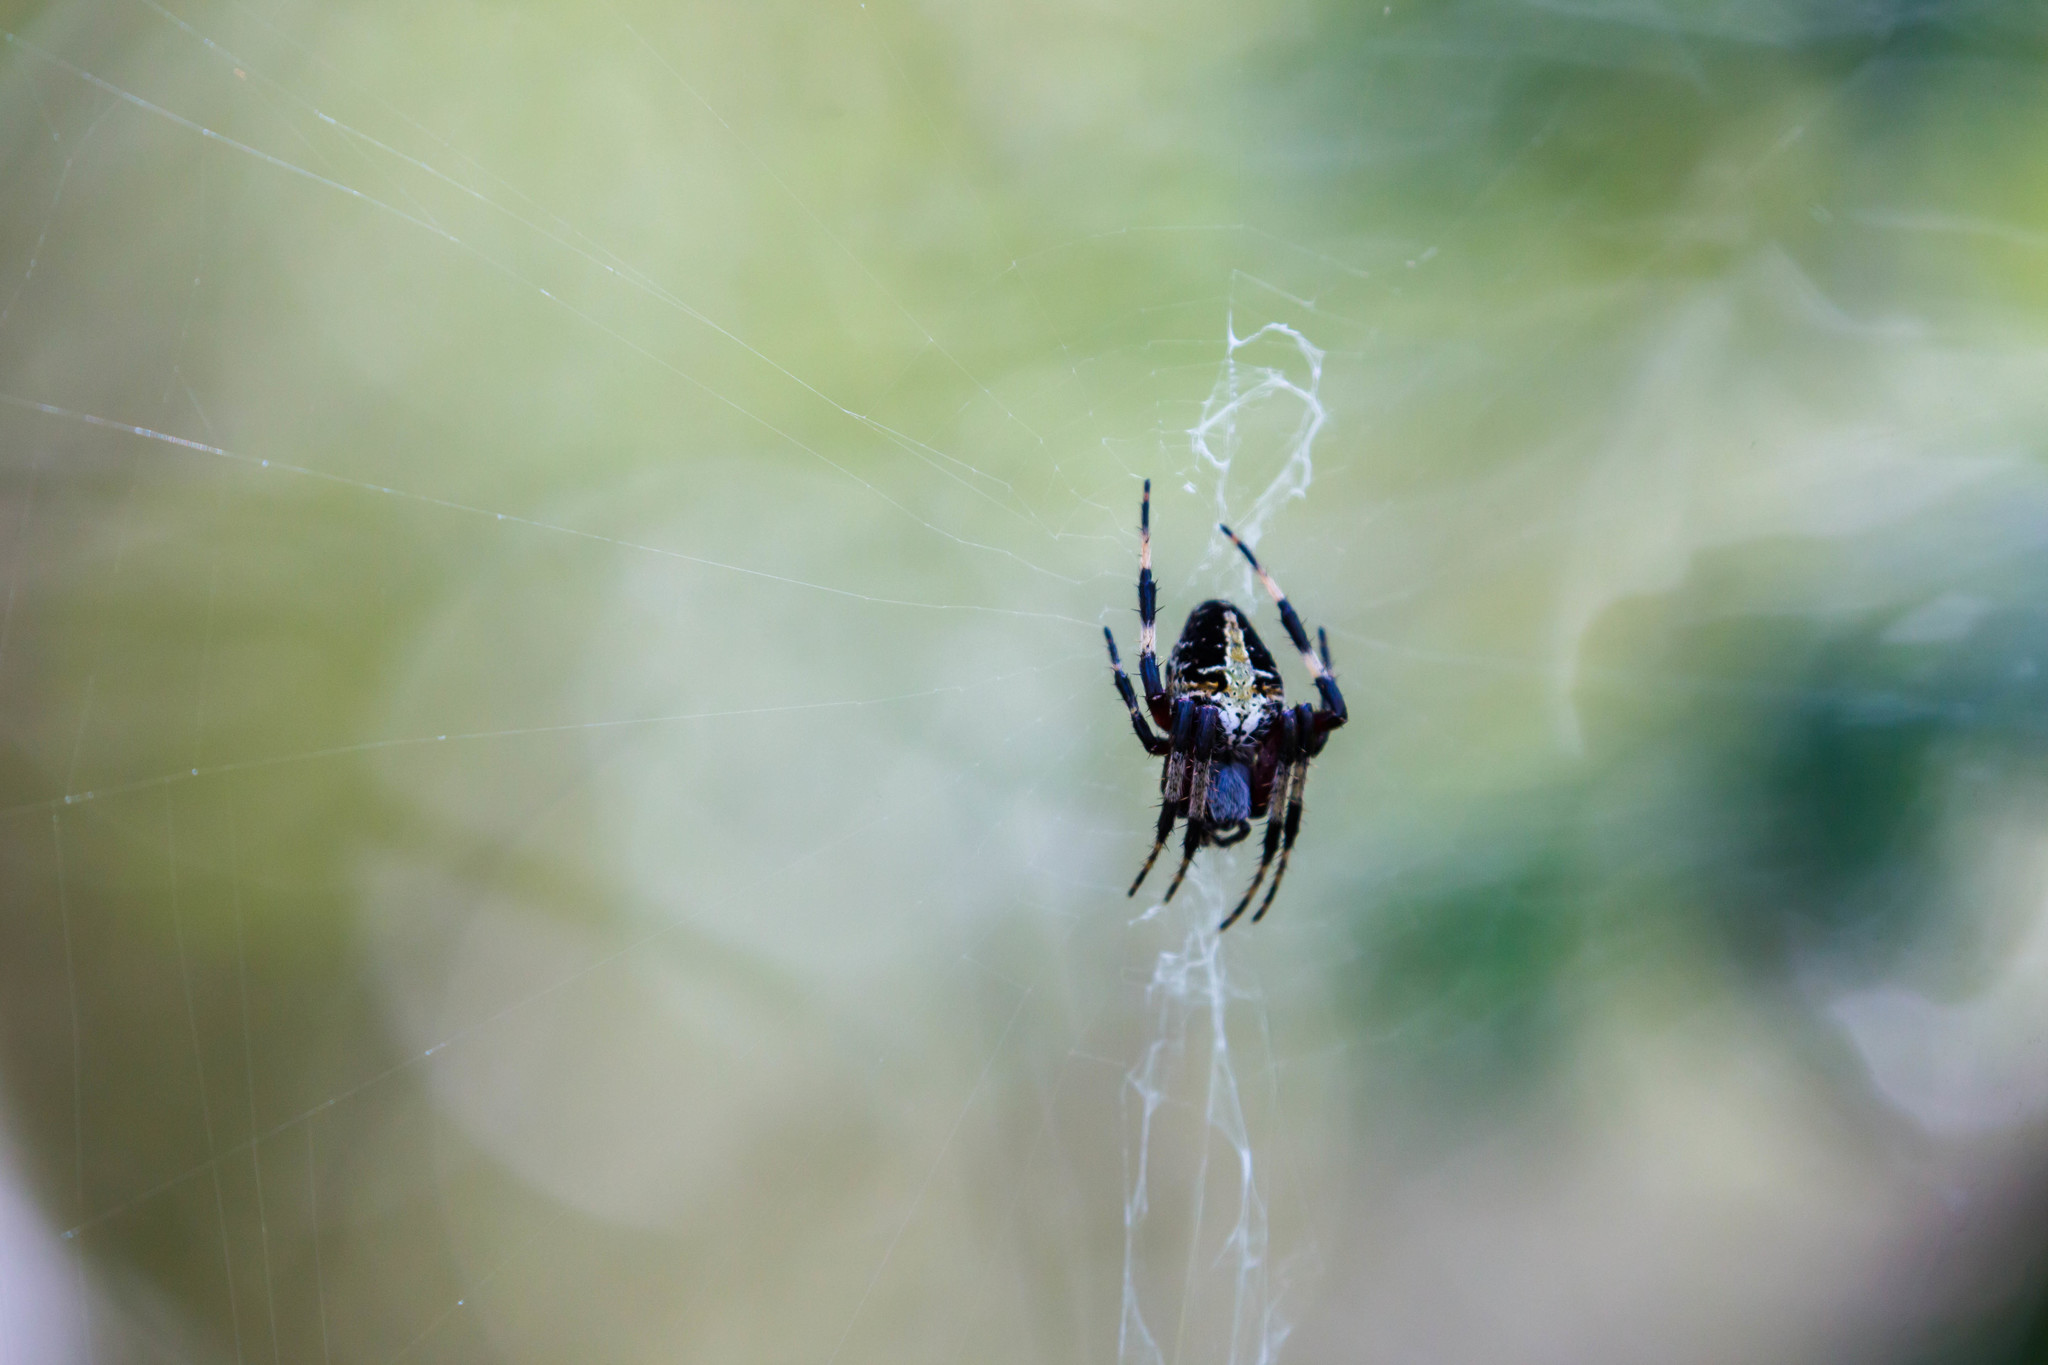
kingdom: Animalia
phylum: Arthropoda
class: Arachnida
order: Araneae
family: Araneidae
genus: Neoscona
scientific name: Neoscona domiciliorum
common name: Red-femured spotted orbweaver
